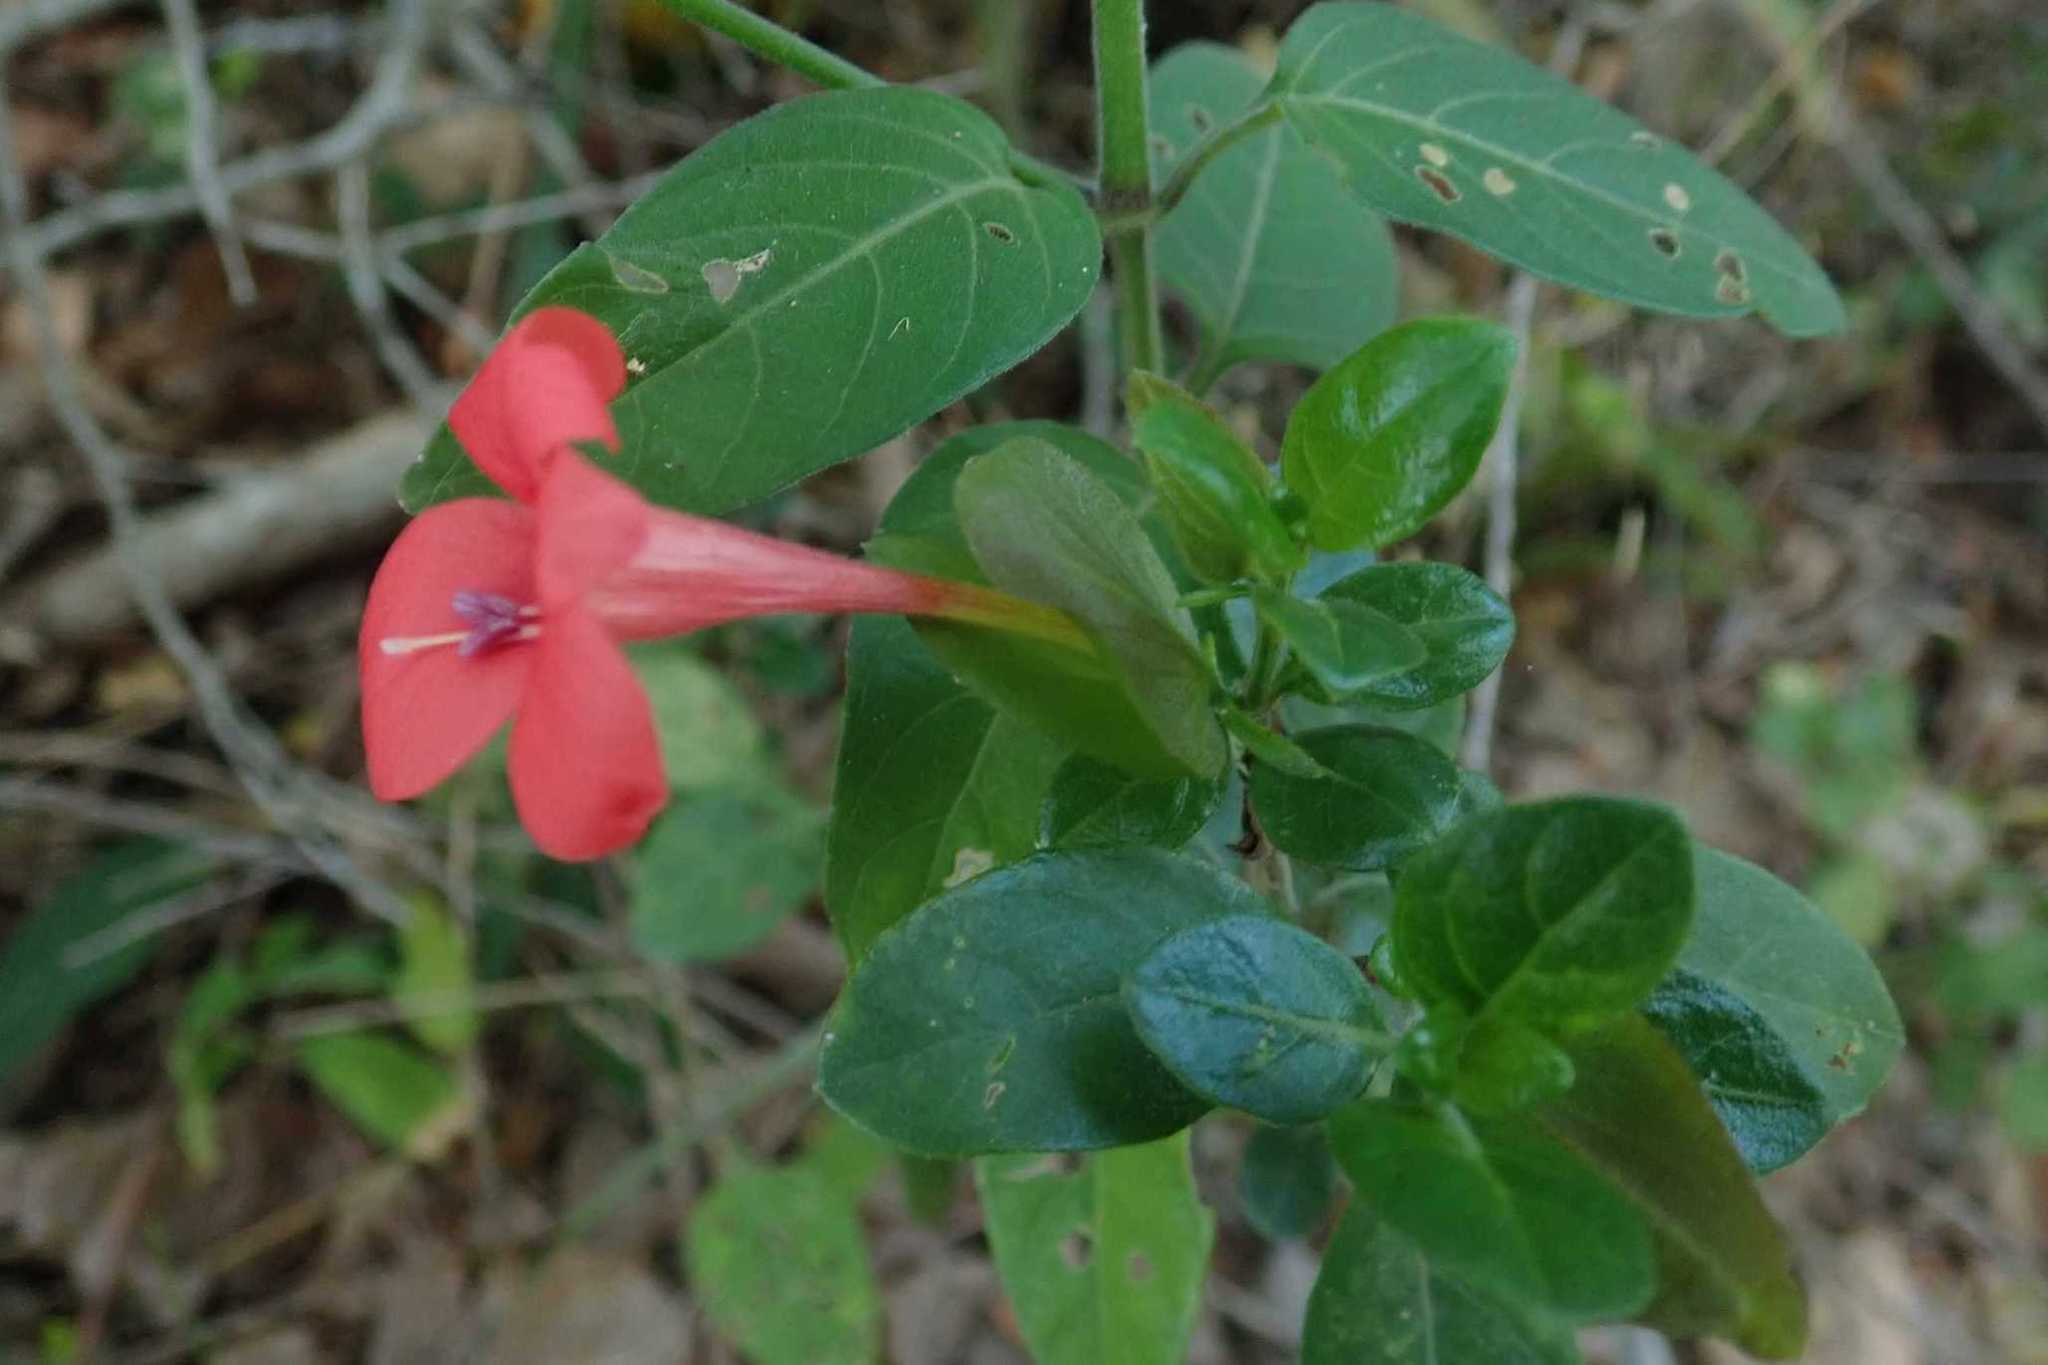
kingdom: Plantae
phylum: Tracheophyta
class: Magnoliopsida
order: Lamiales
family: Acanthaceae
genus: Barleria
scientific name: Barleria repens
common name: Pink-ruellia
